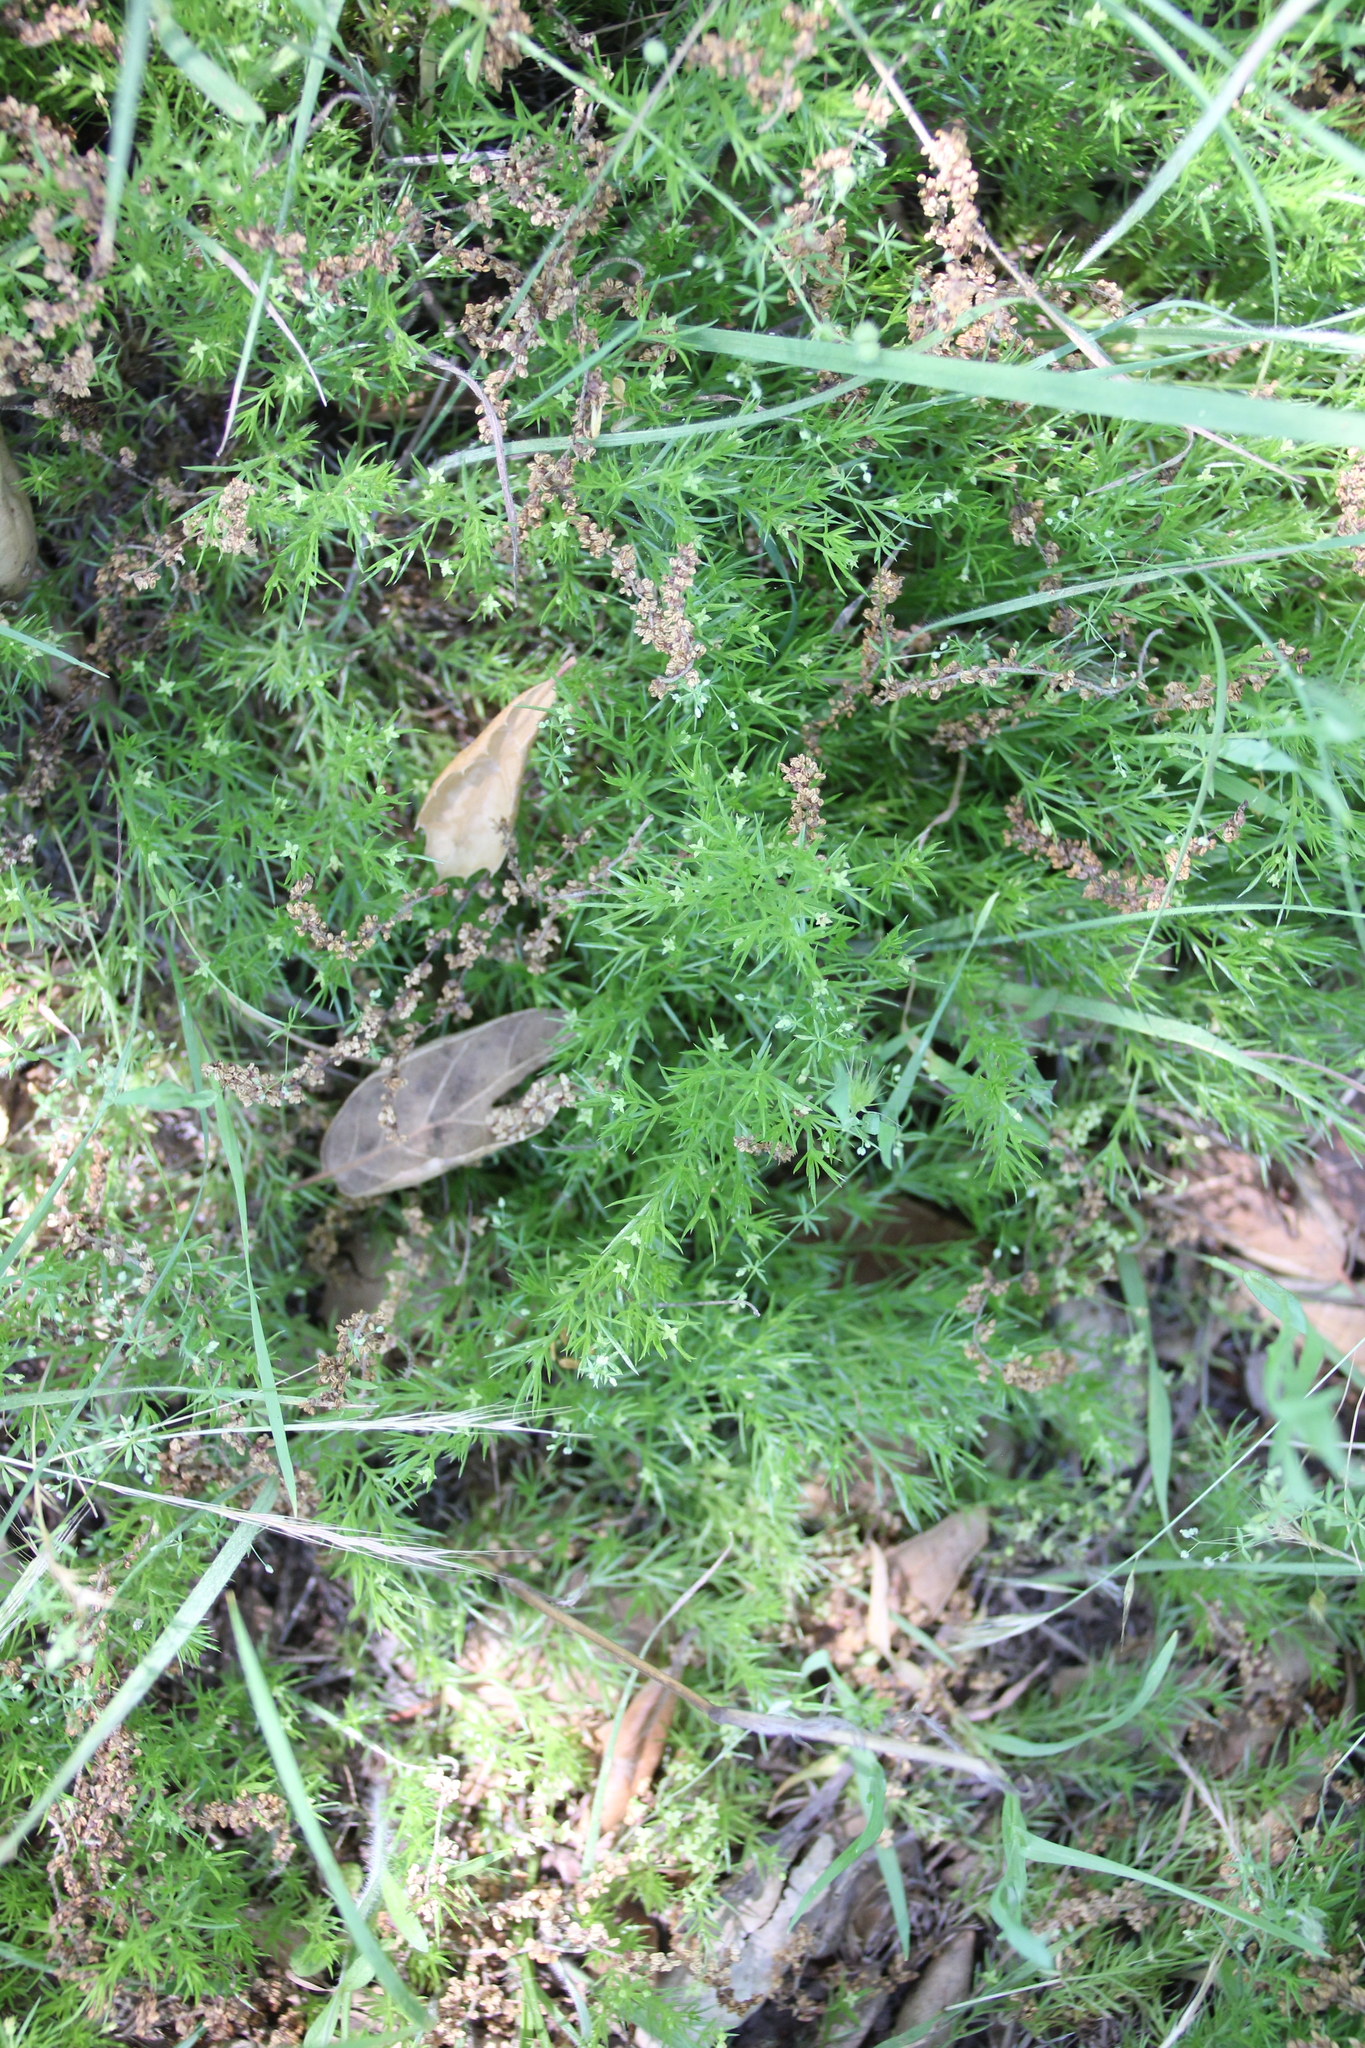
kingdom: Plantae
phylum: Tracheophyta
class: Magnoliopsida
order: Gentianales
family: Rubiaceae
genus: Galium
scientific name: Galium andrewsii
